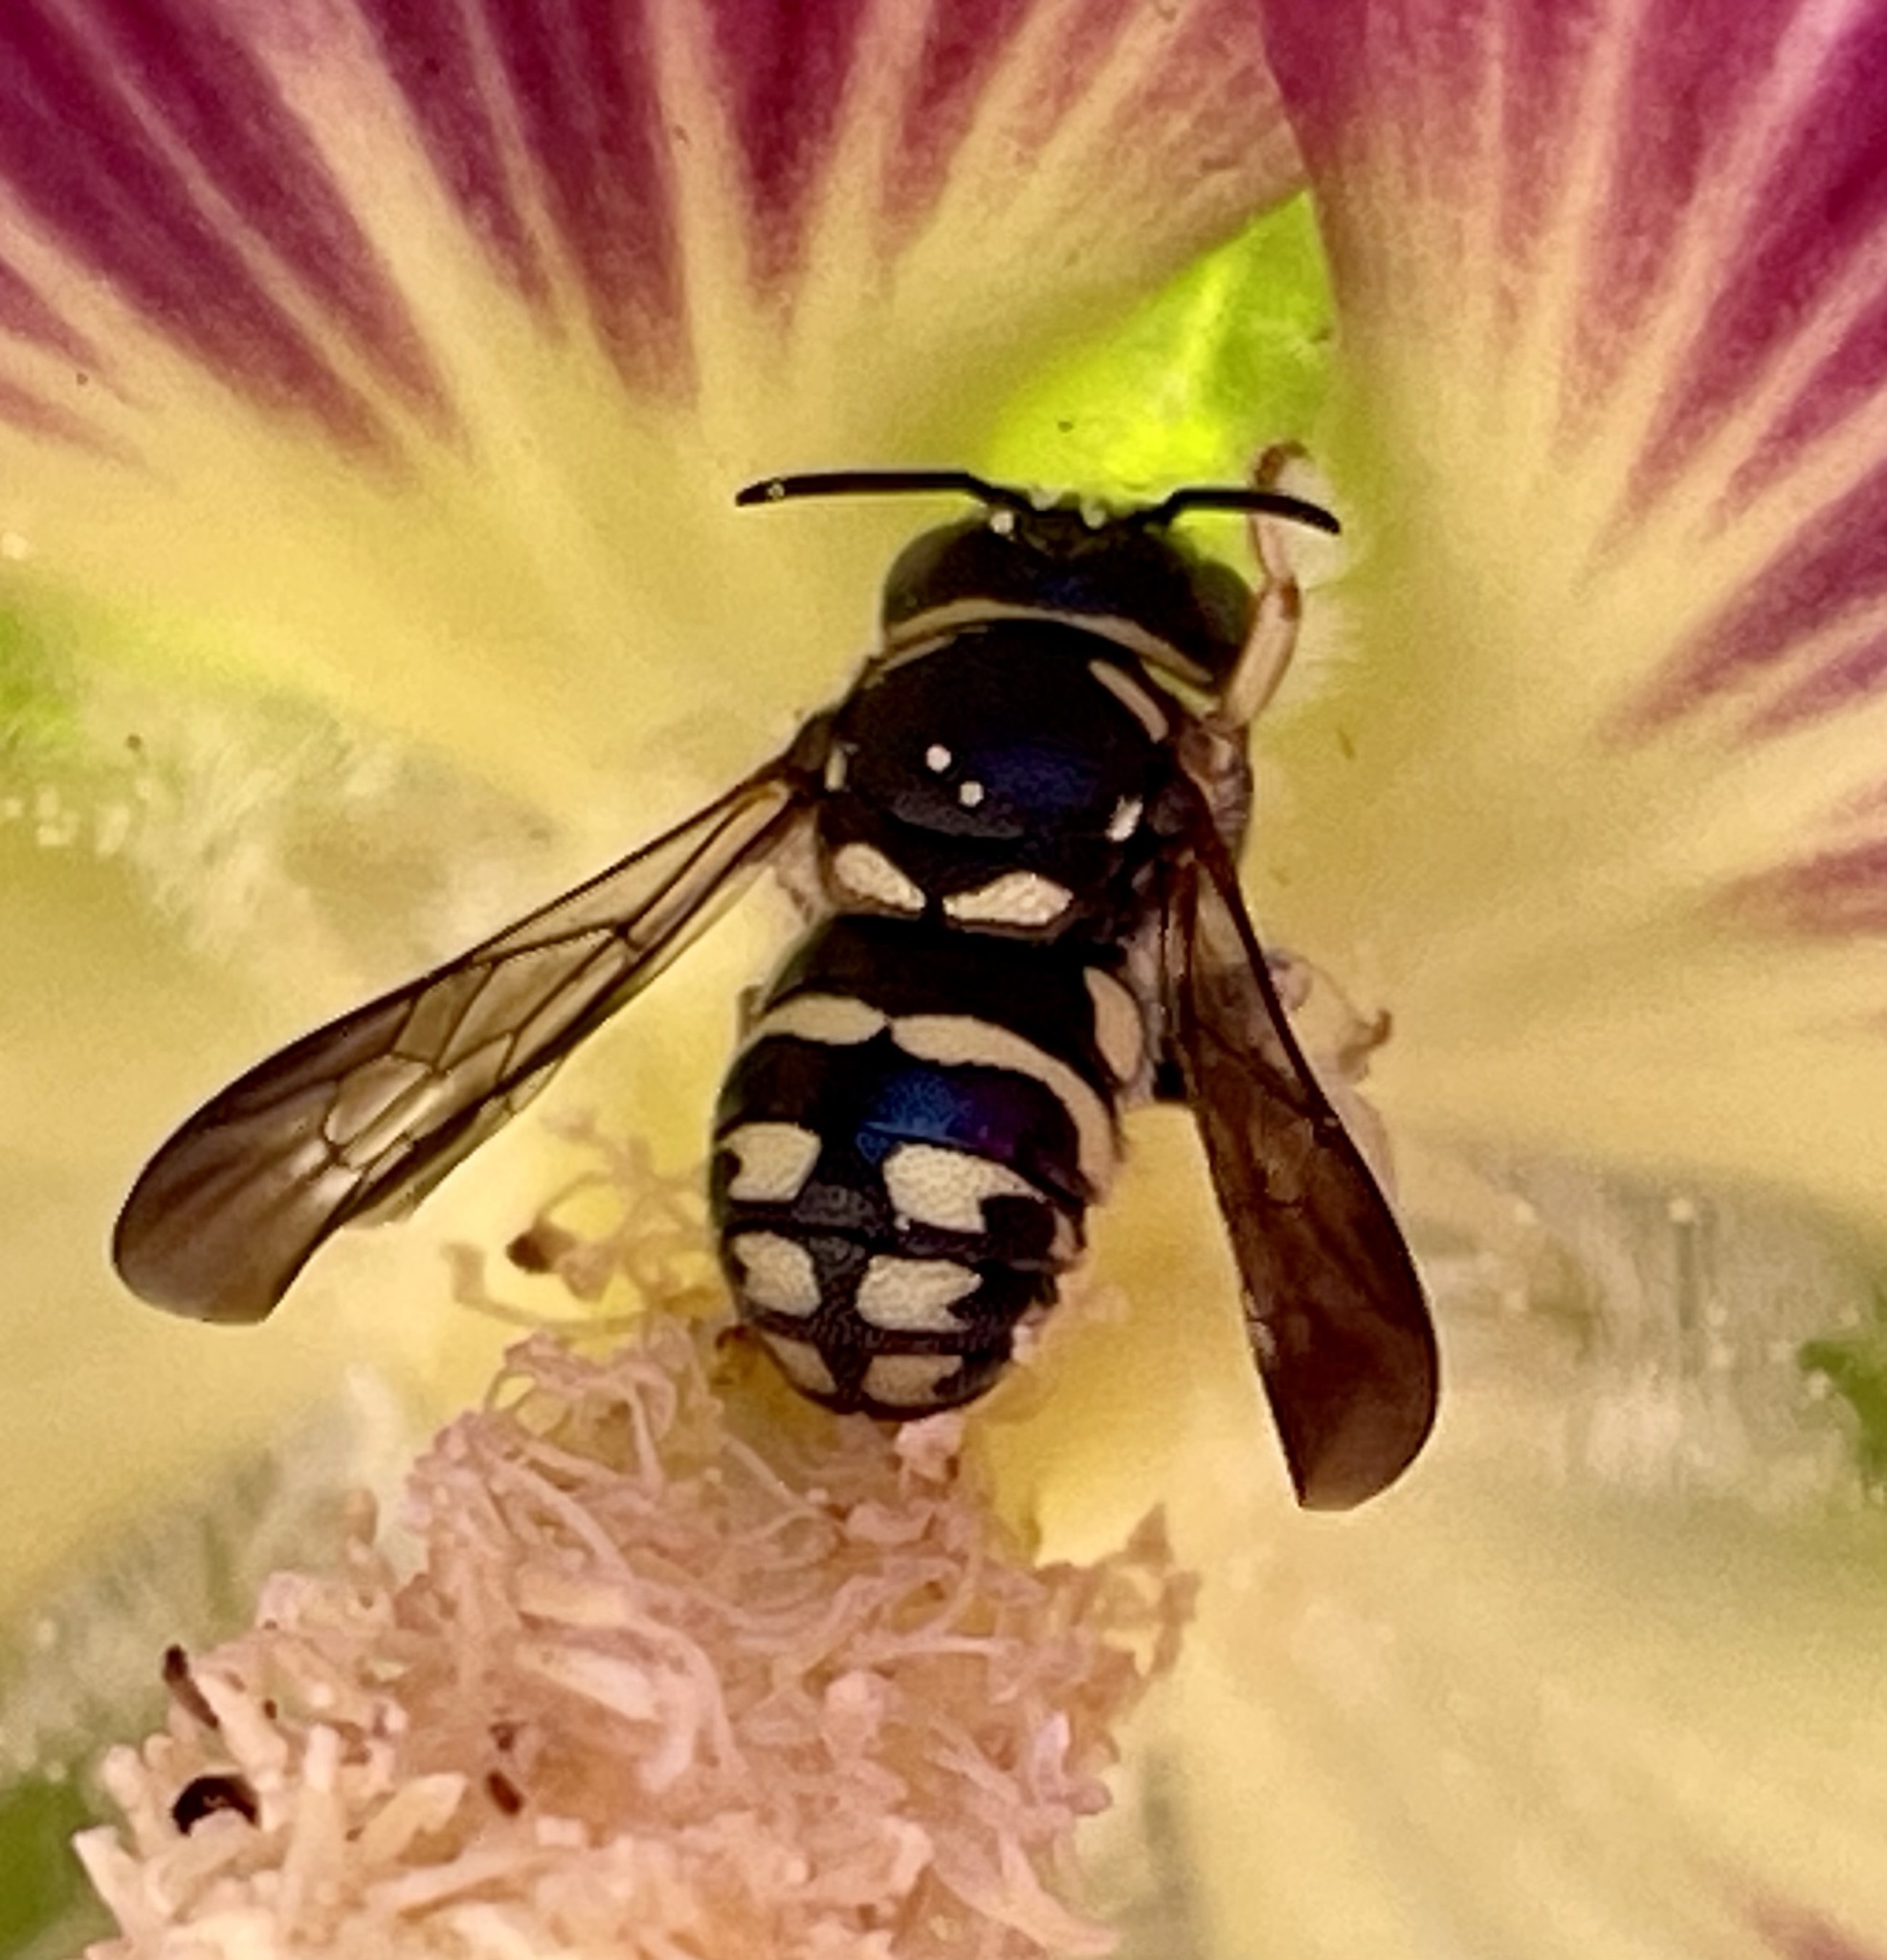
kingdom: Animalia
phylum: Arthropoda
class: Insecta
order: Hymenoptera
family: Megachilidae
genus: Anthidiellum
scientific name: Anthidiellum notatum
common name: Northern rotund-resin bee
